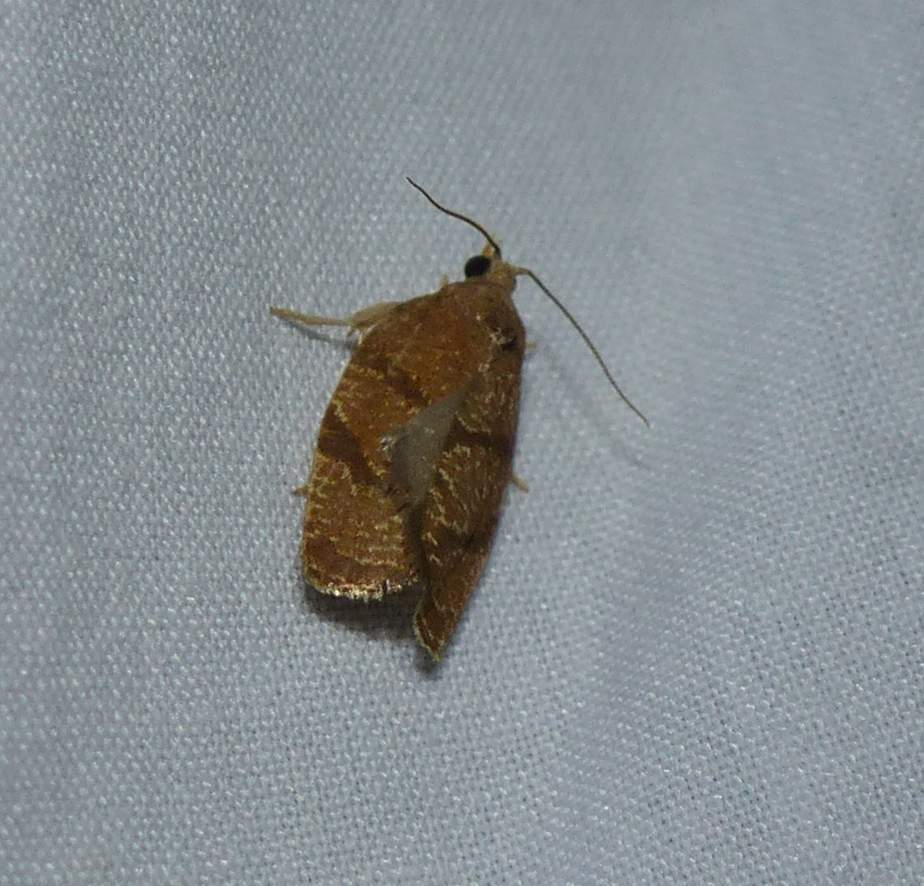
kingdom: Animalia
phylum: Arthropoda
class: Insecta
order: Lepidoptera
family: Tortricidae
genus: Argyrotaenia
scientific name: Argyrotaenia juglandana
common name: Hickory leafroller moth
